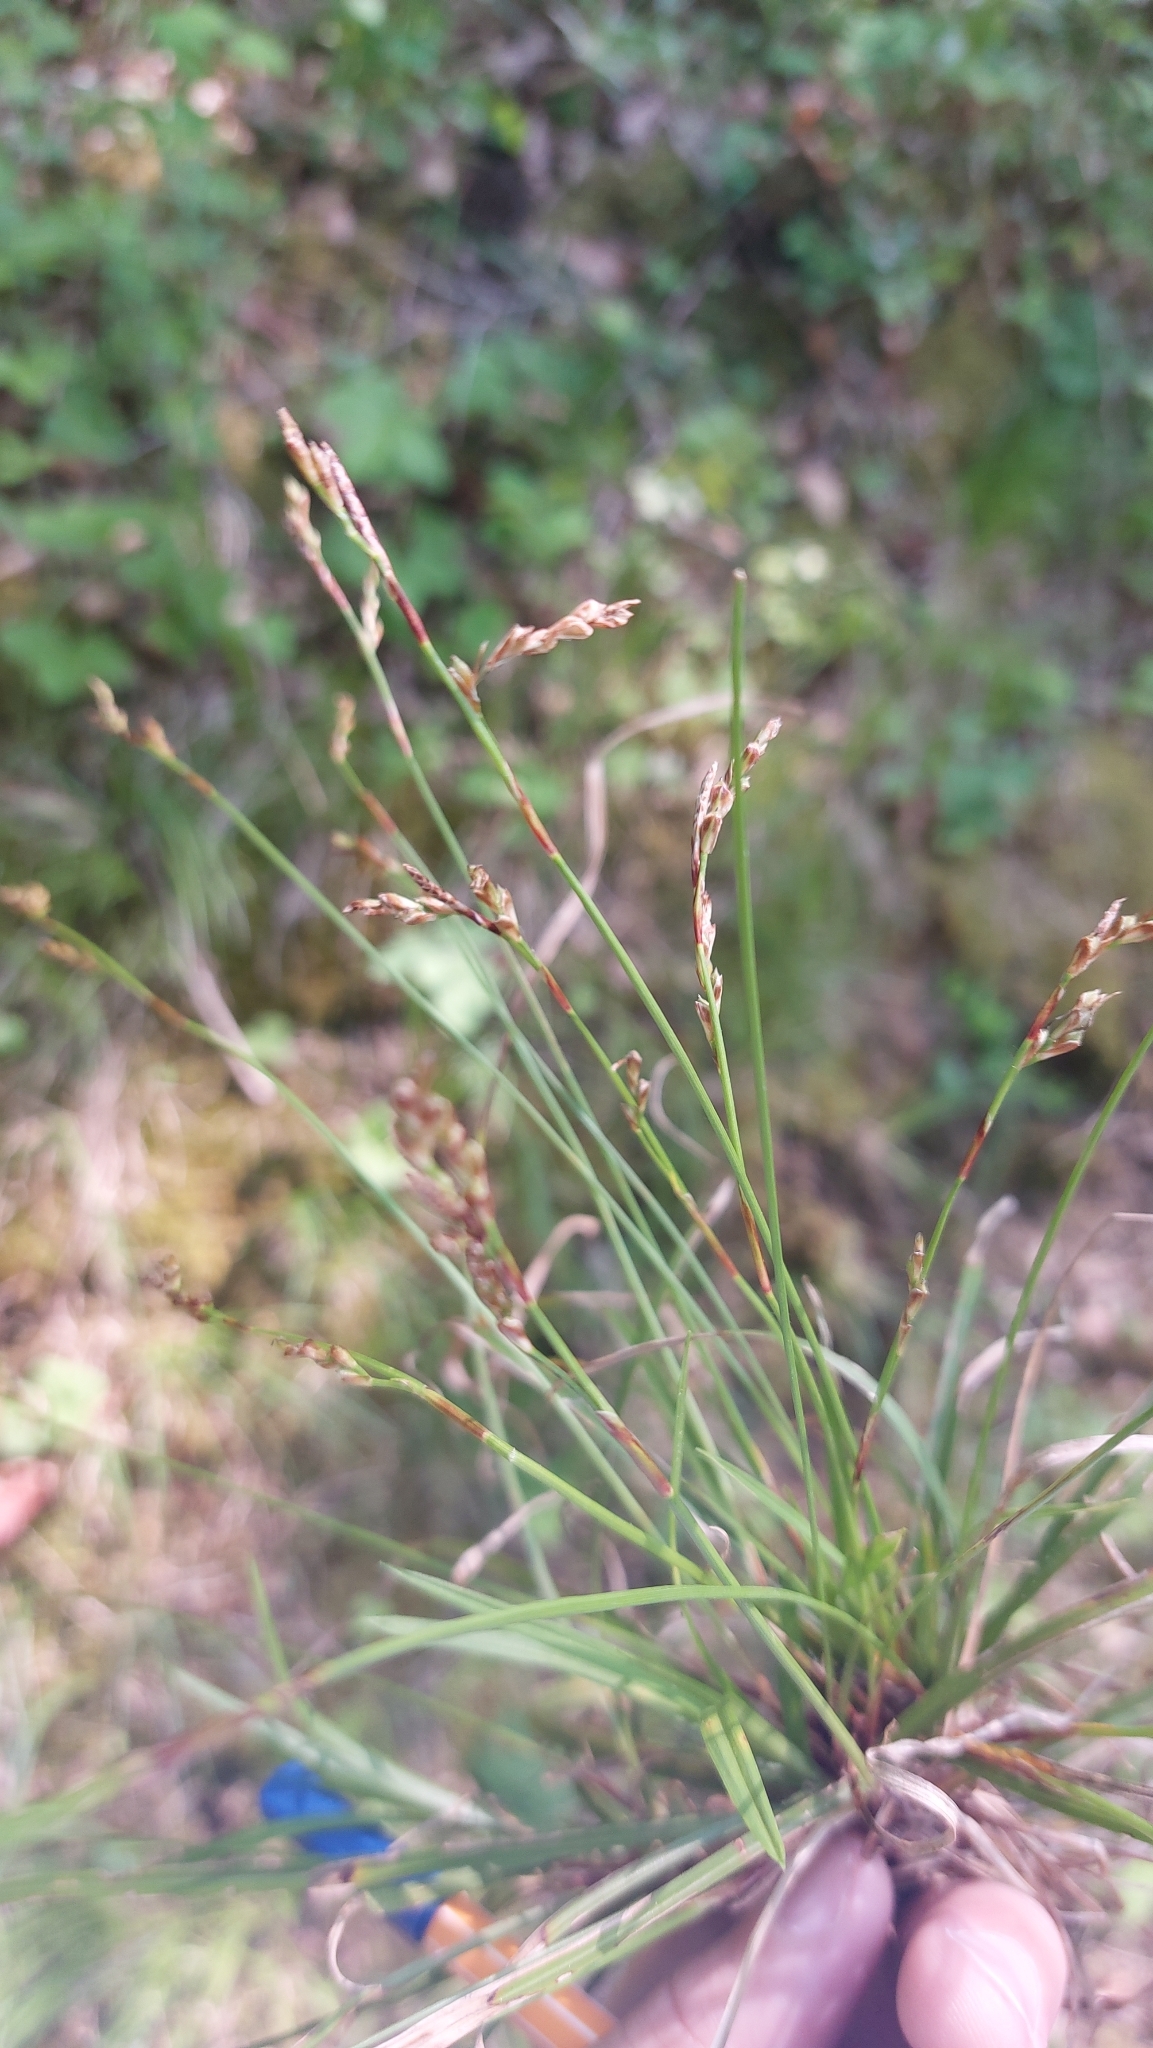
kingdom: Plantae
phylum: Tracheophyta
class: Liliopsida
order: Poales
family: Cyperaceae
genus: Carex
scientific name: Carex digitata
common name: Fingered sedge
